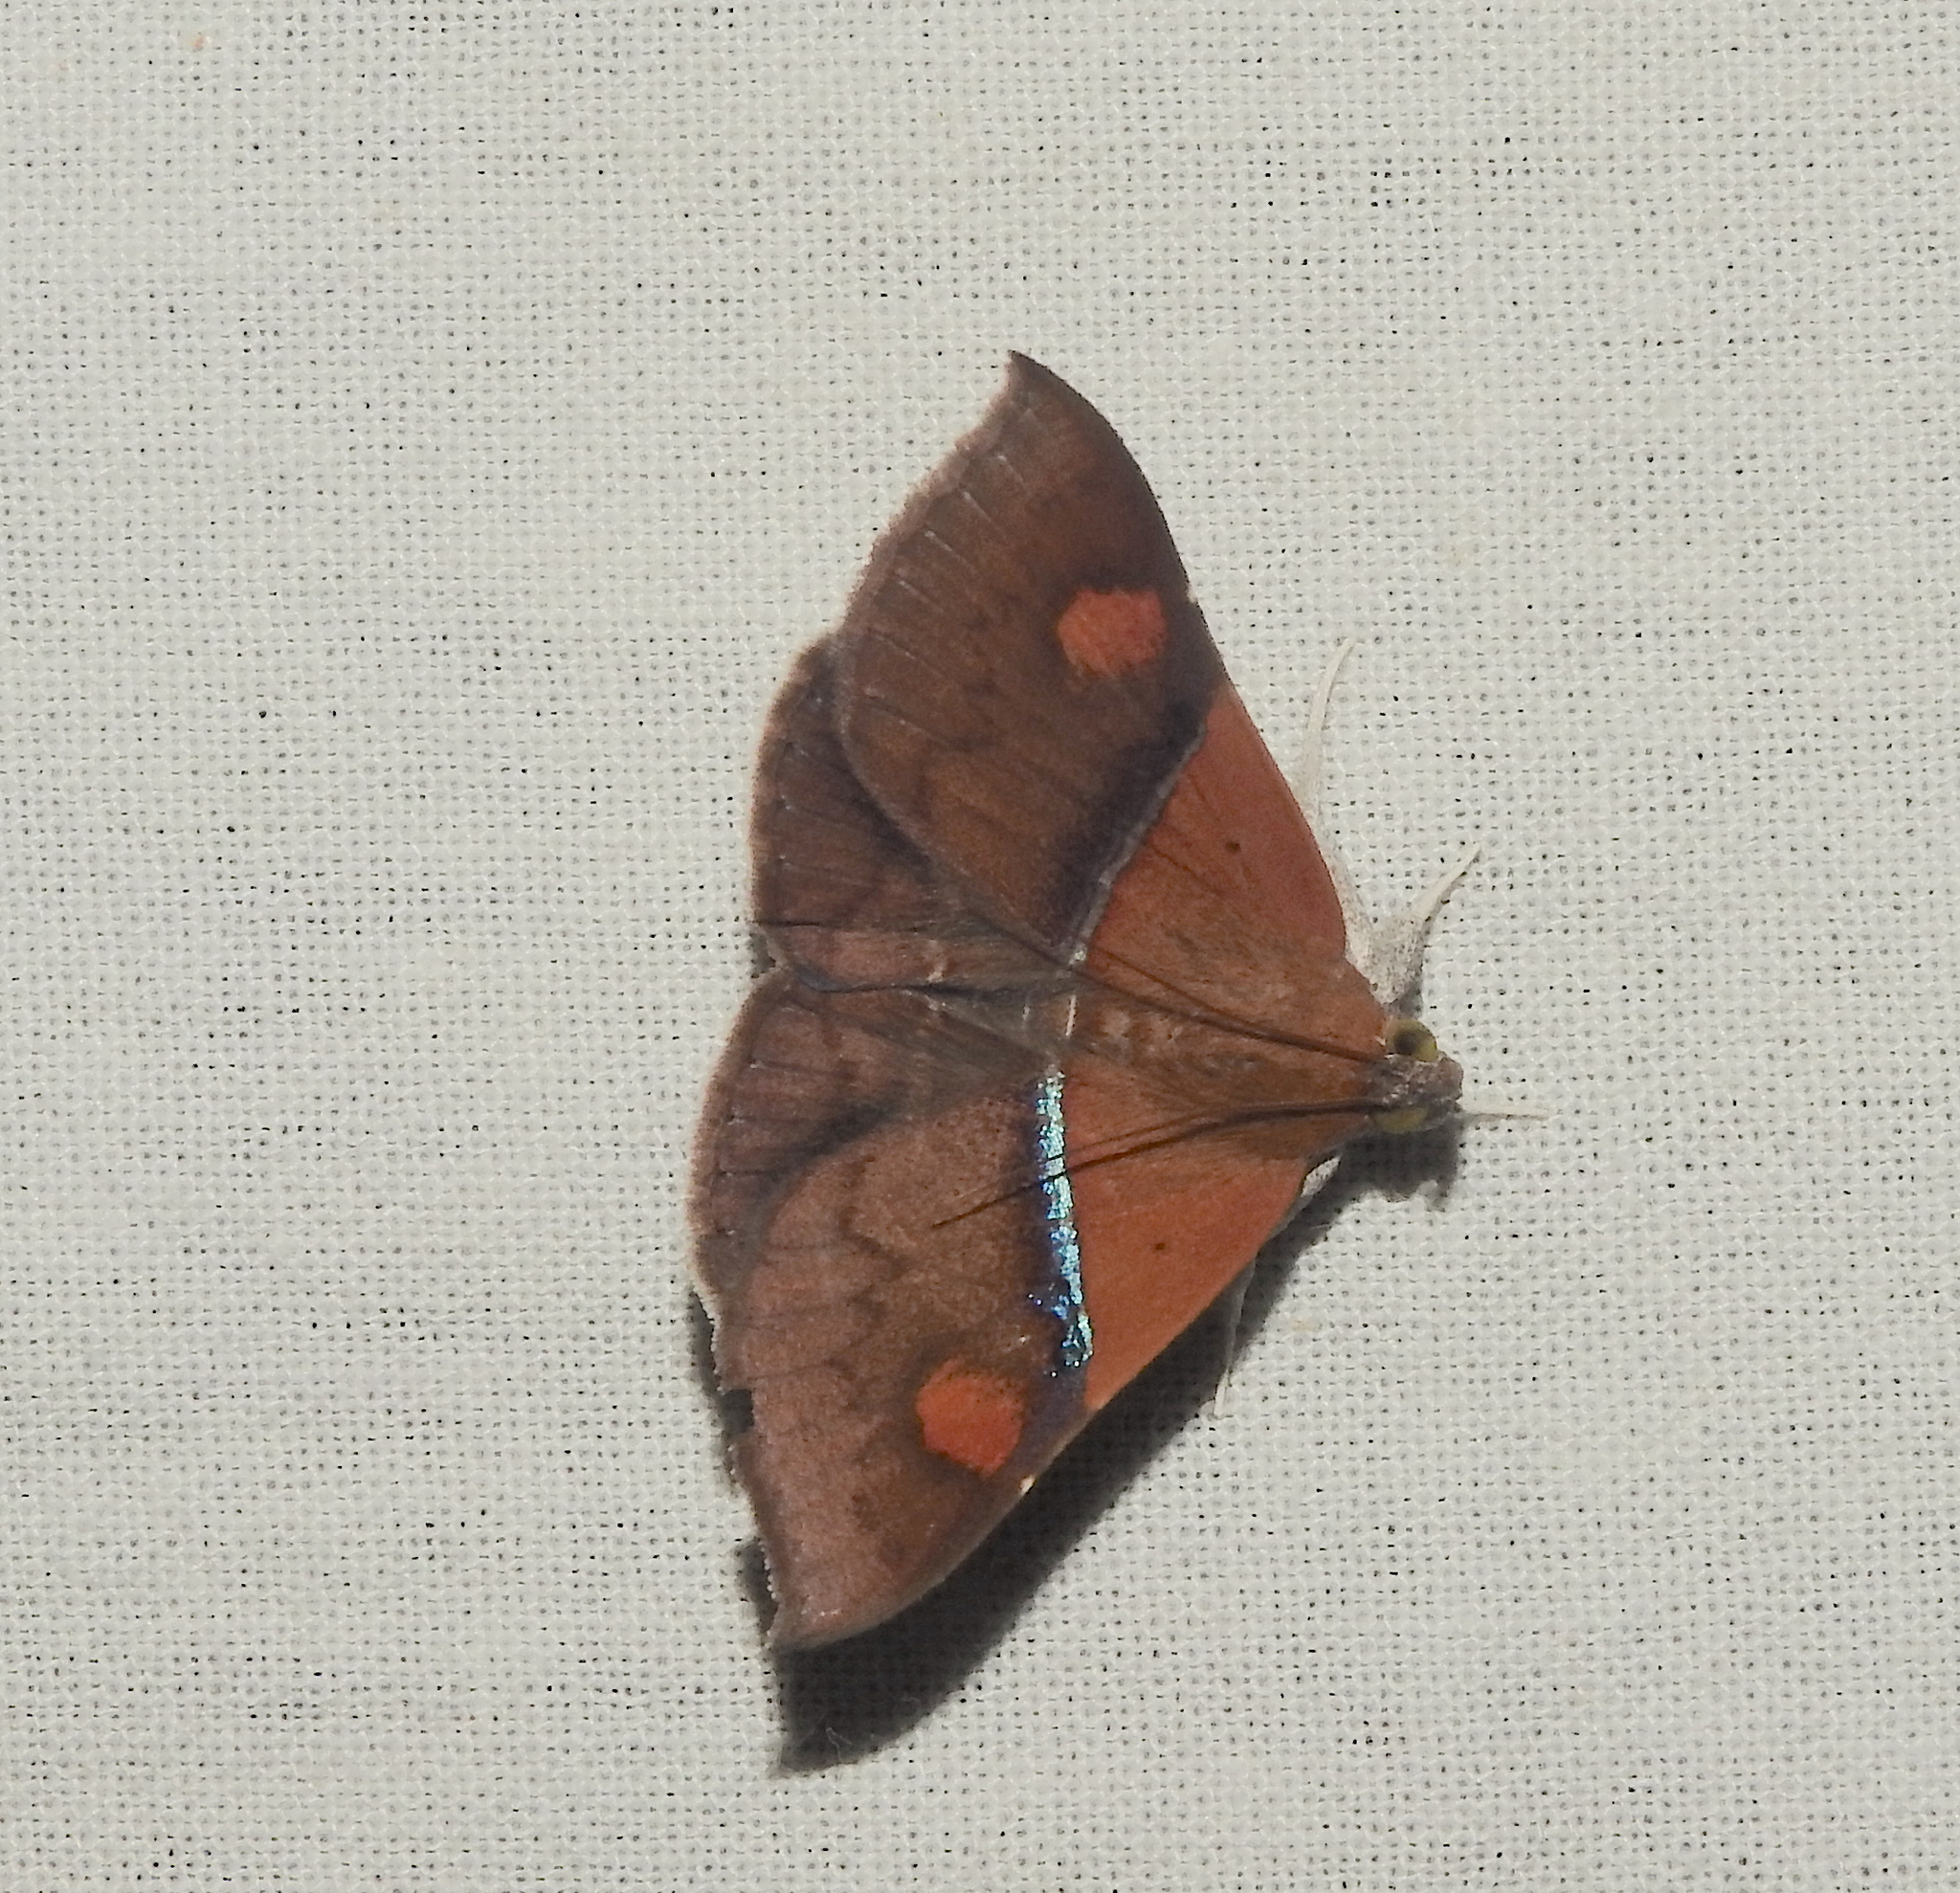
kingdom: Animalia
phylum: Arthropoda
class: Insecta
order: Lepidoptera
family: Erebidae
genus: Sympis
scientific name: Sympis rufibasis
